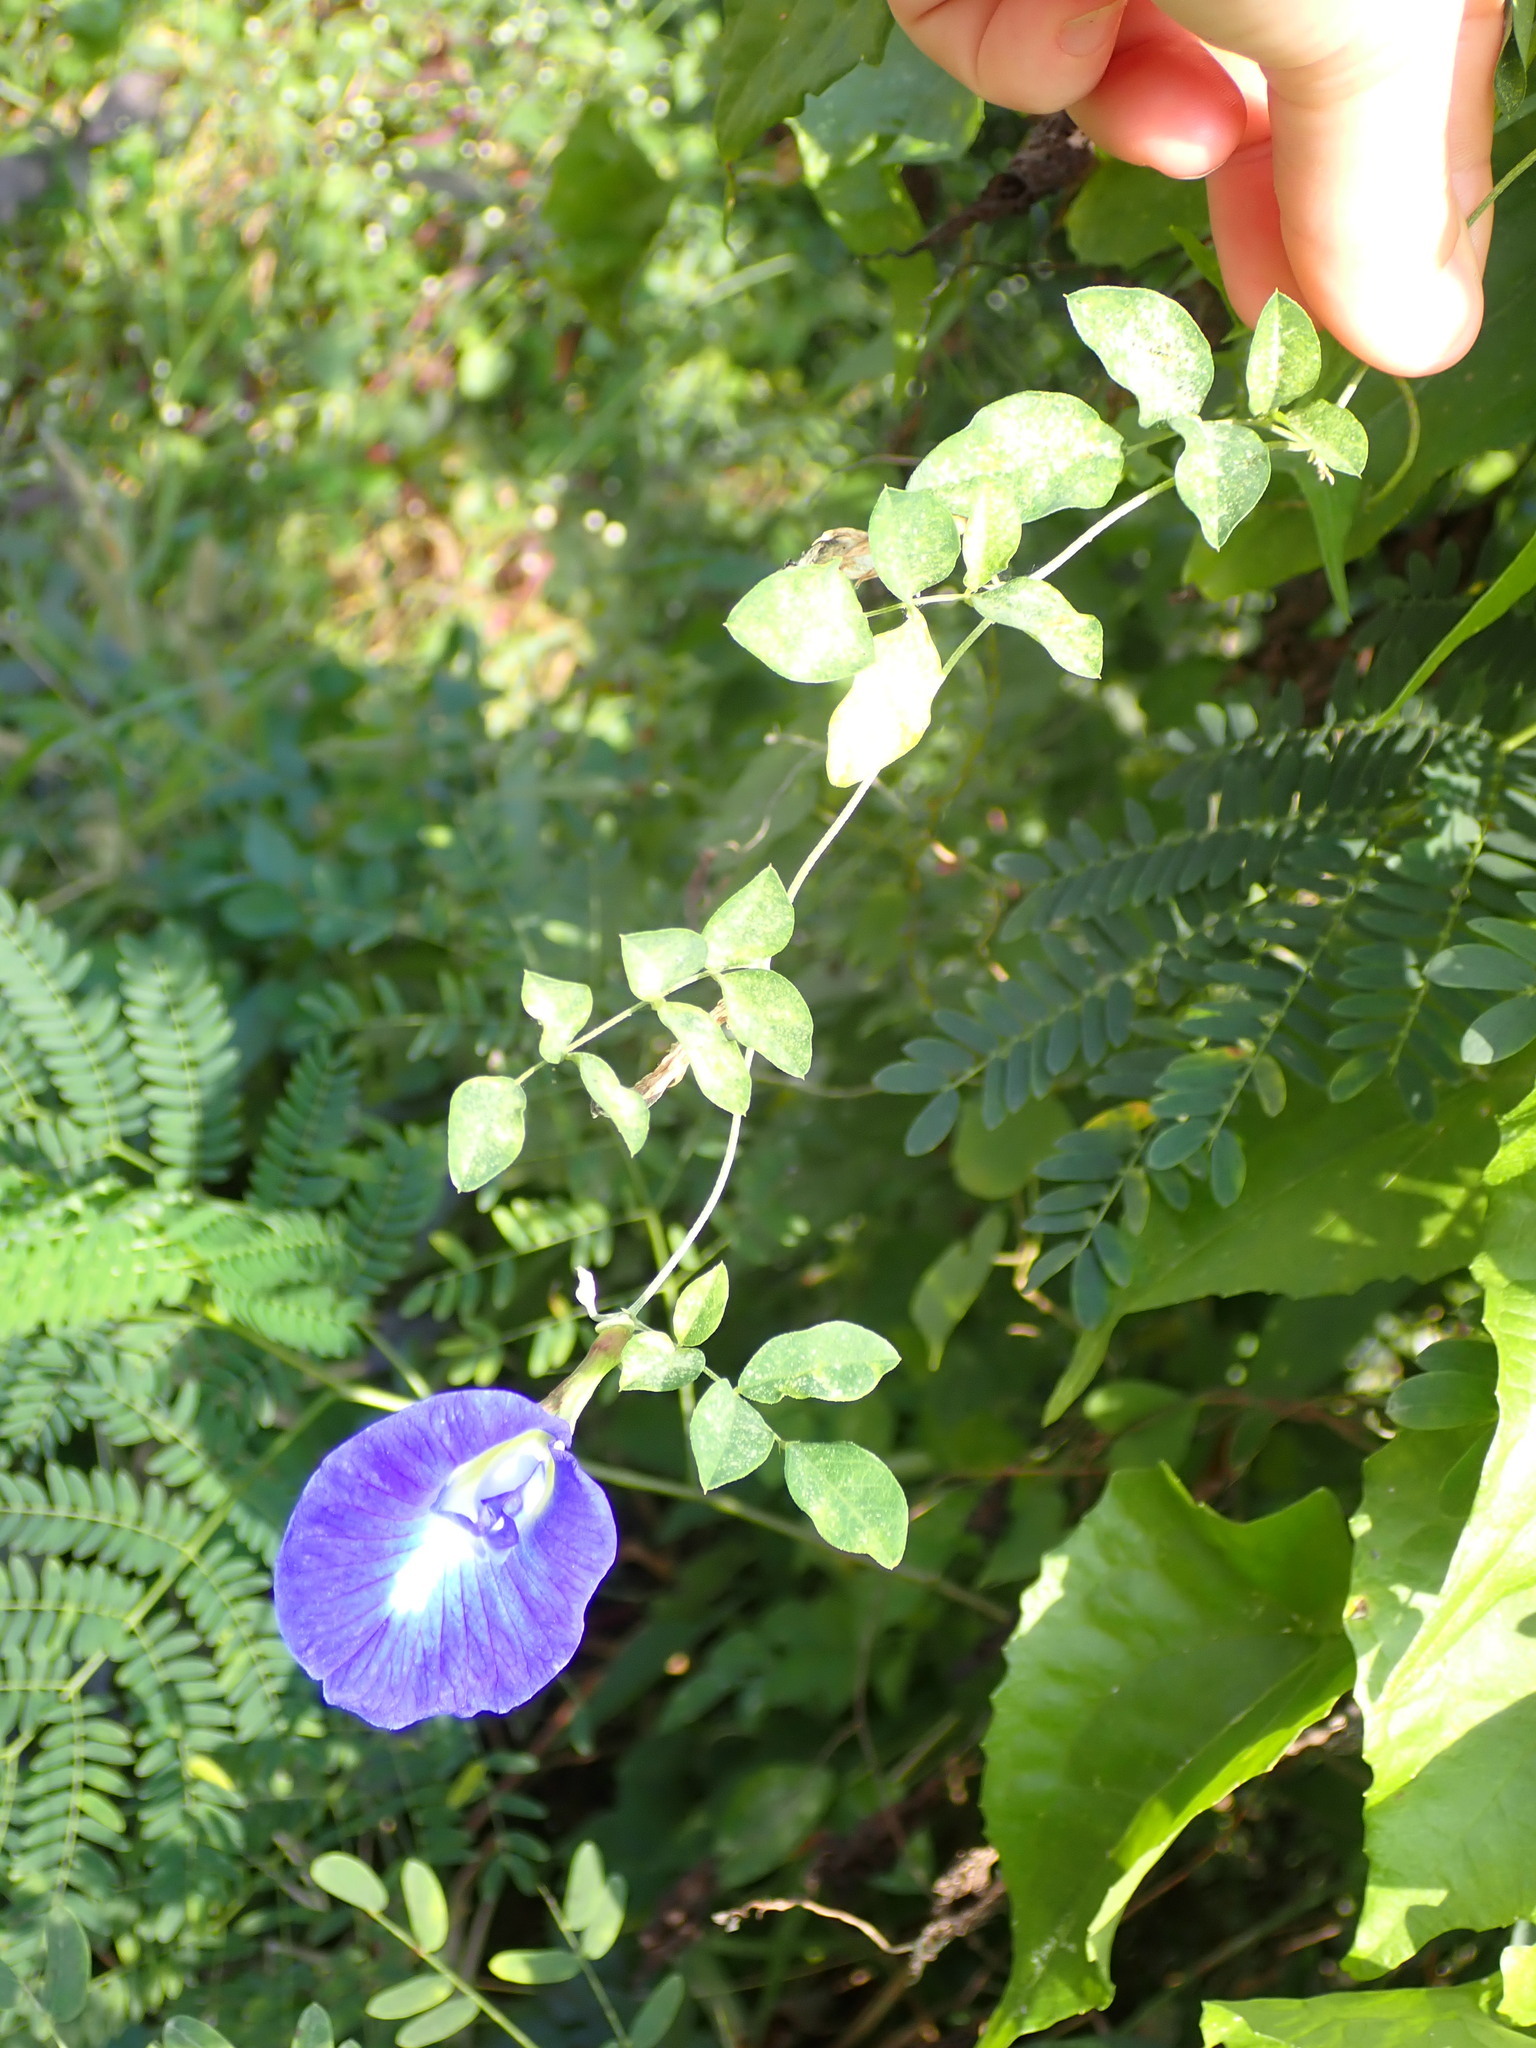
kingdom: Plantae
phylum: Tracheophyta
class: Magnoliopsida
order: Fabales
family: Fabaceae
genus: Clitoria
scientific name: Clitoria ternatea
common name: Asian pigeonwings
